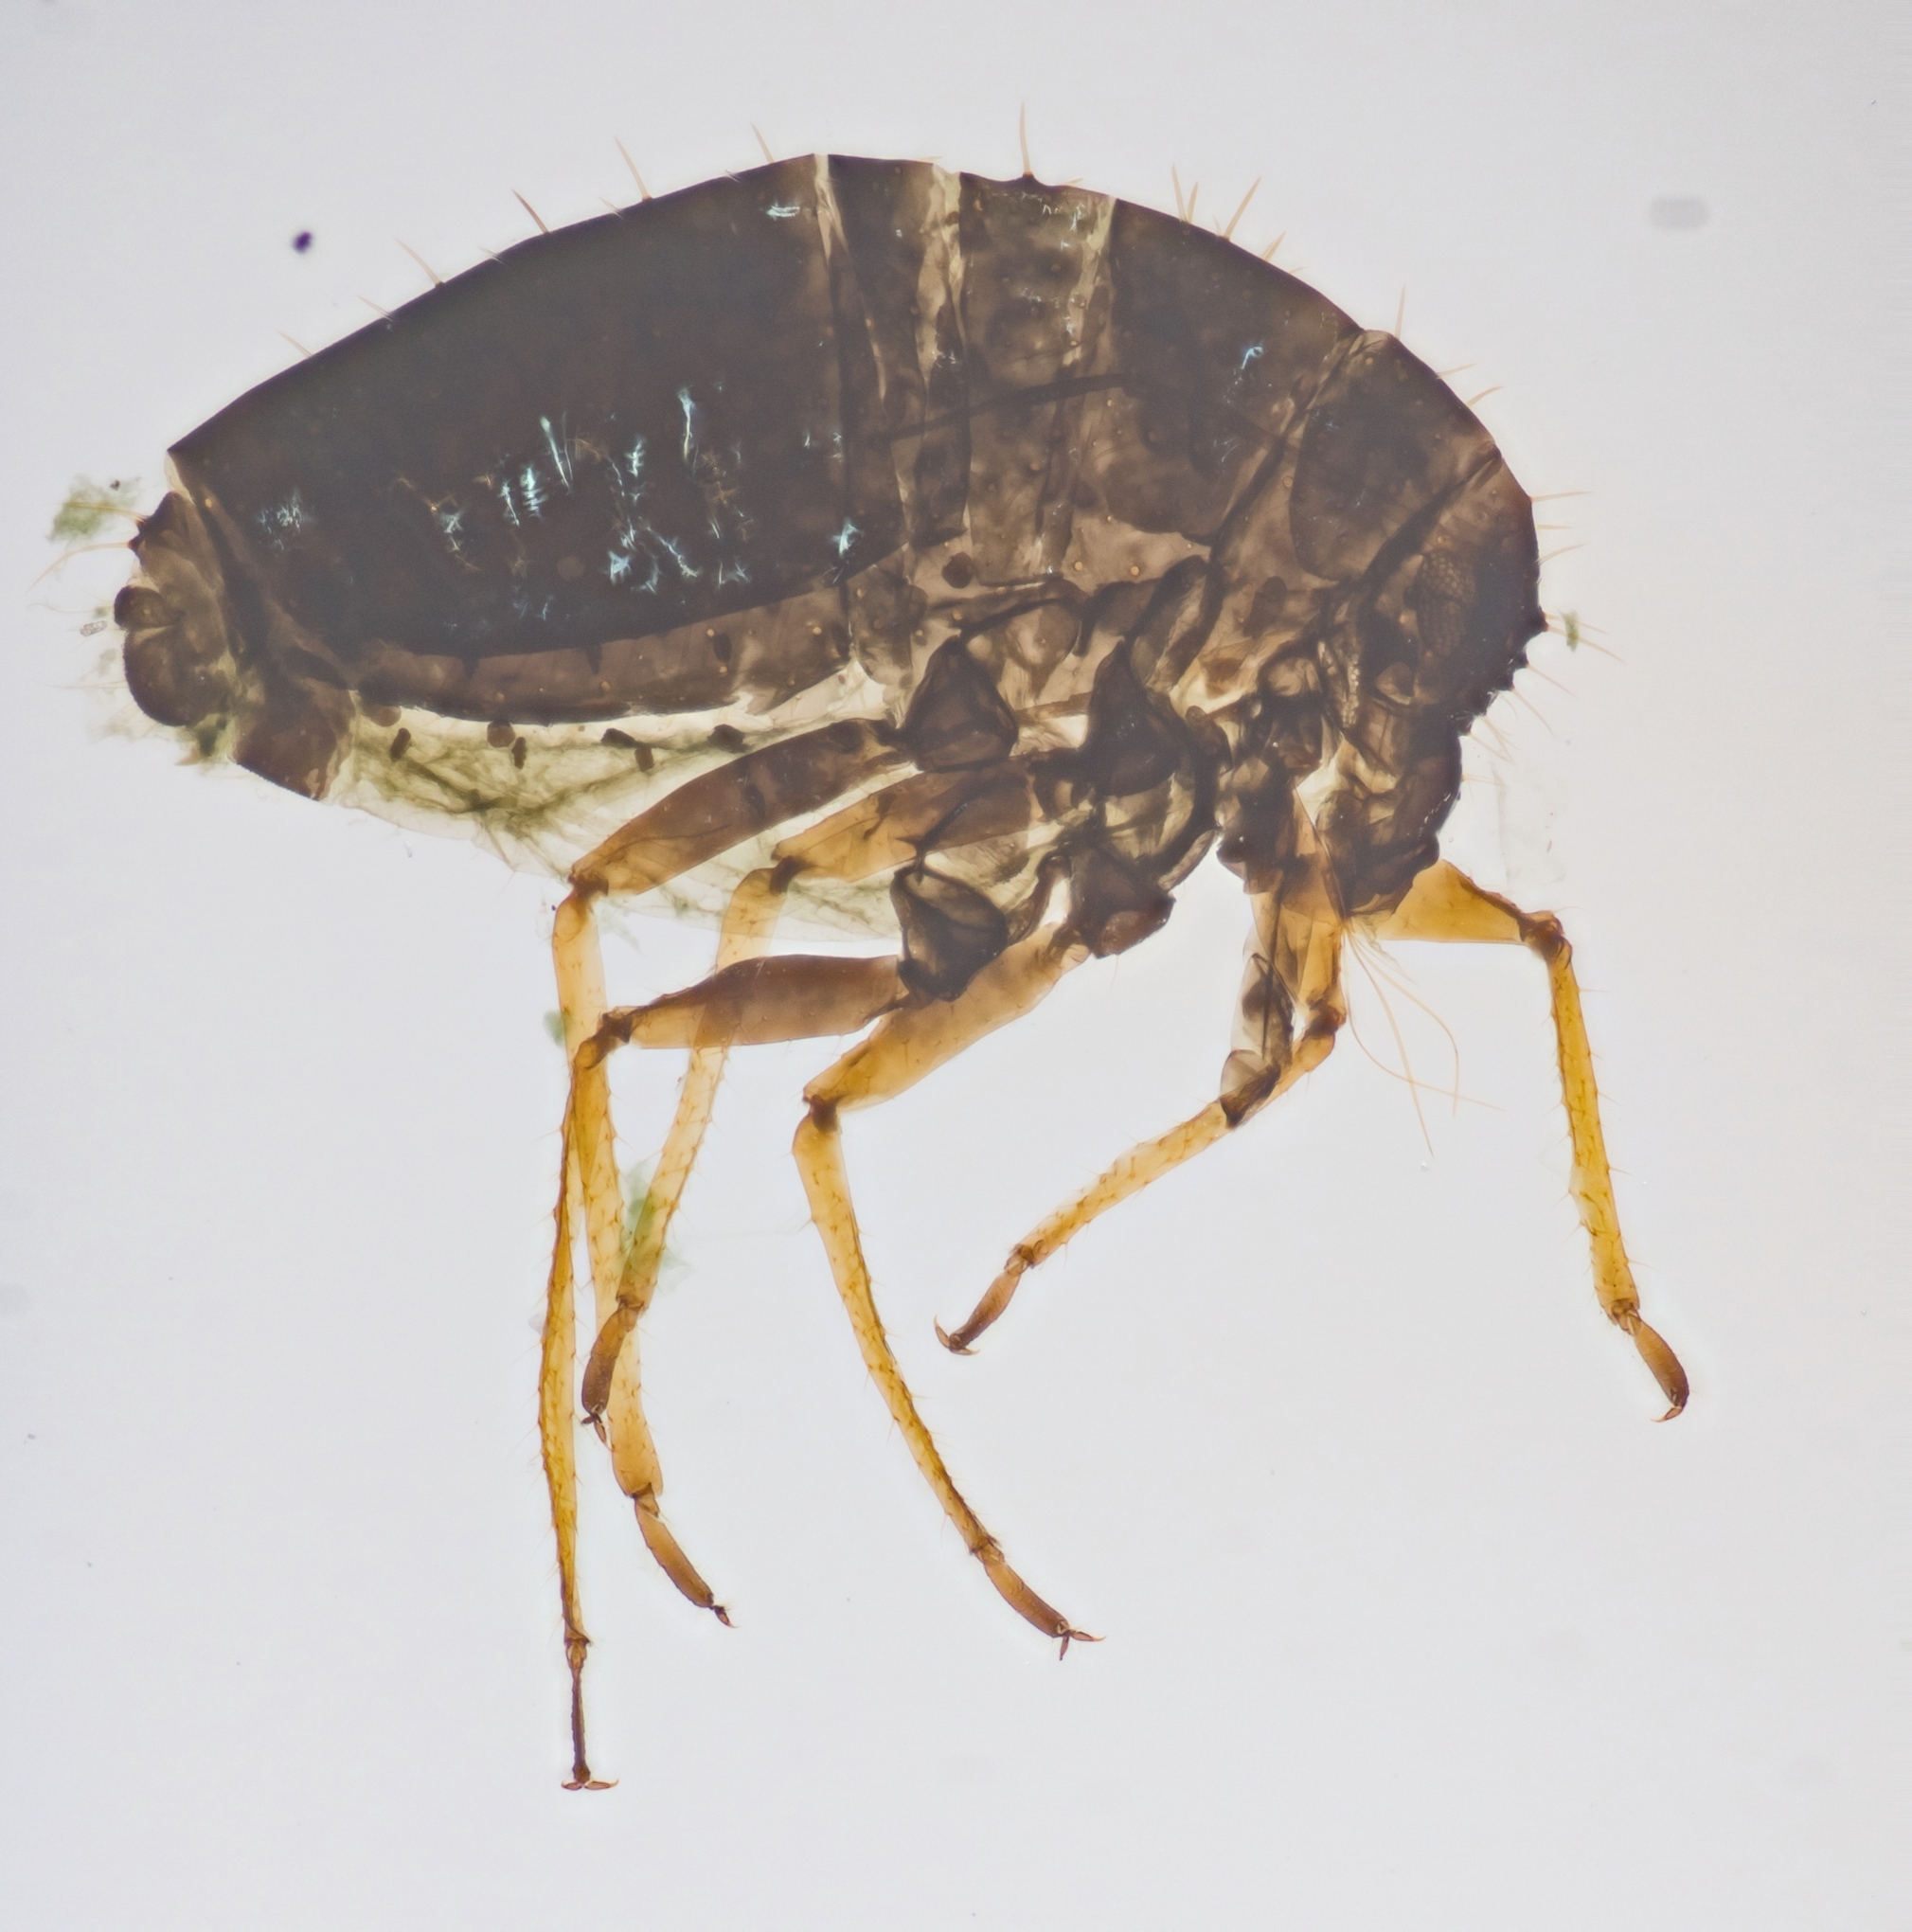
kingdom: Animalia
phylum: Arthropoda
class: Insecta
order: Hemiptera
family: Aphididae
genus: Sipha
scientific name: Sipha maydis
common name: Aphid
